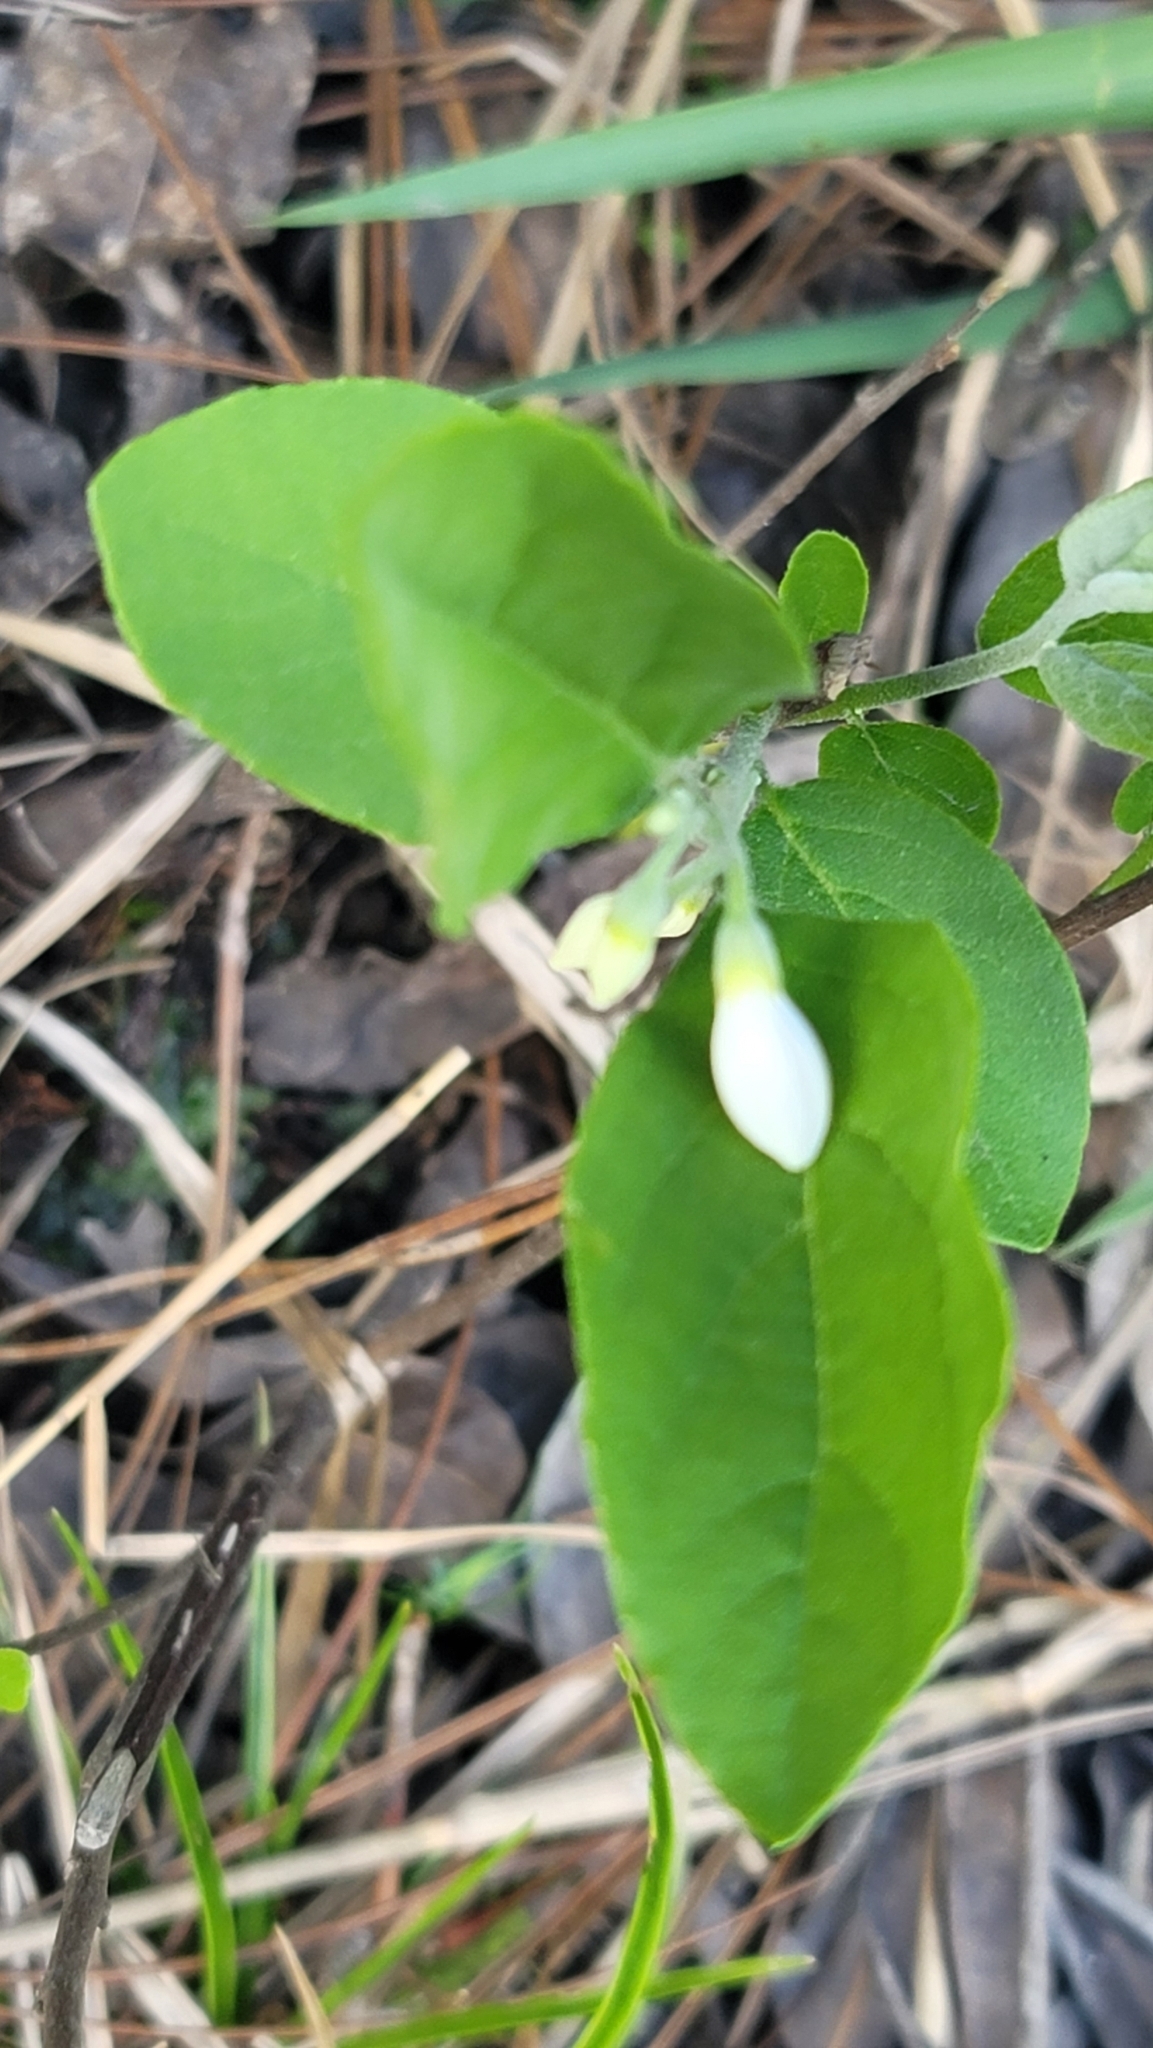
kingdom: Plantae
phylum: Tracheophyta
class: Magnoliopsida
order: Ericales
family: Styracaceae
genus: Styrax
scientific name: Styrax americanus
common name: American snowbell
